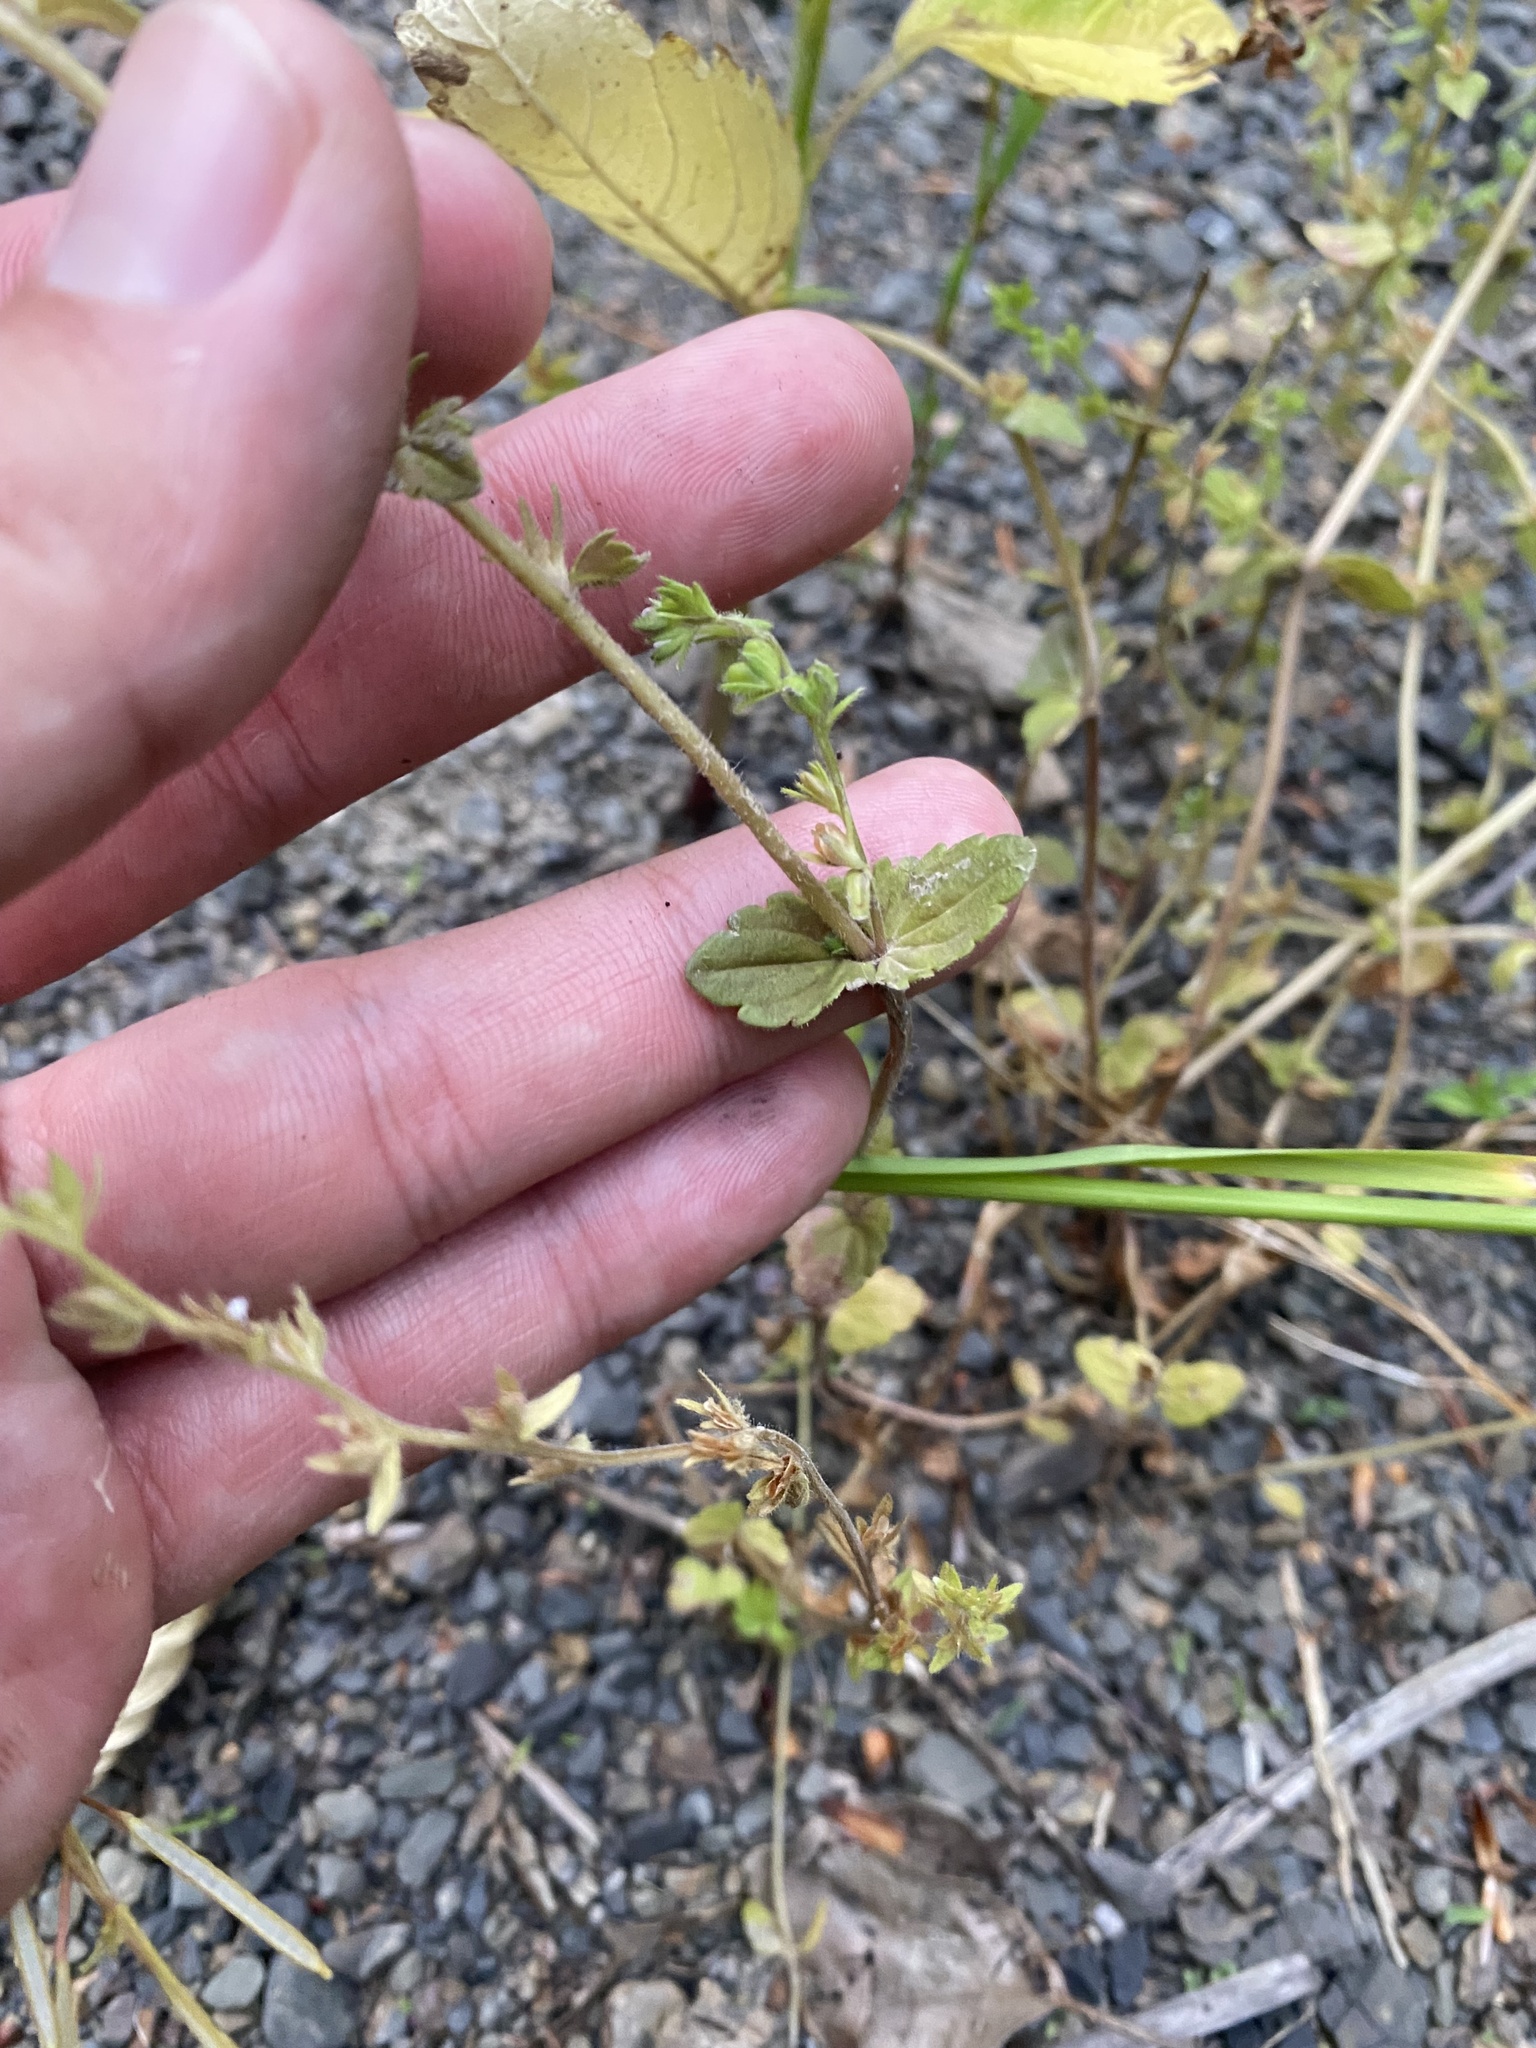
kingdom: Plantae
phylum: Tracheophyta
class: Magnoliopsida
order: Lamiales
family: Plantaginaceae
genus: Veronica
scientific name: Veronica arvensis
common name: Corn speedwell
